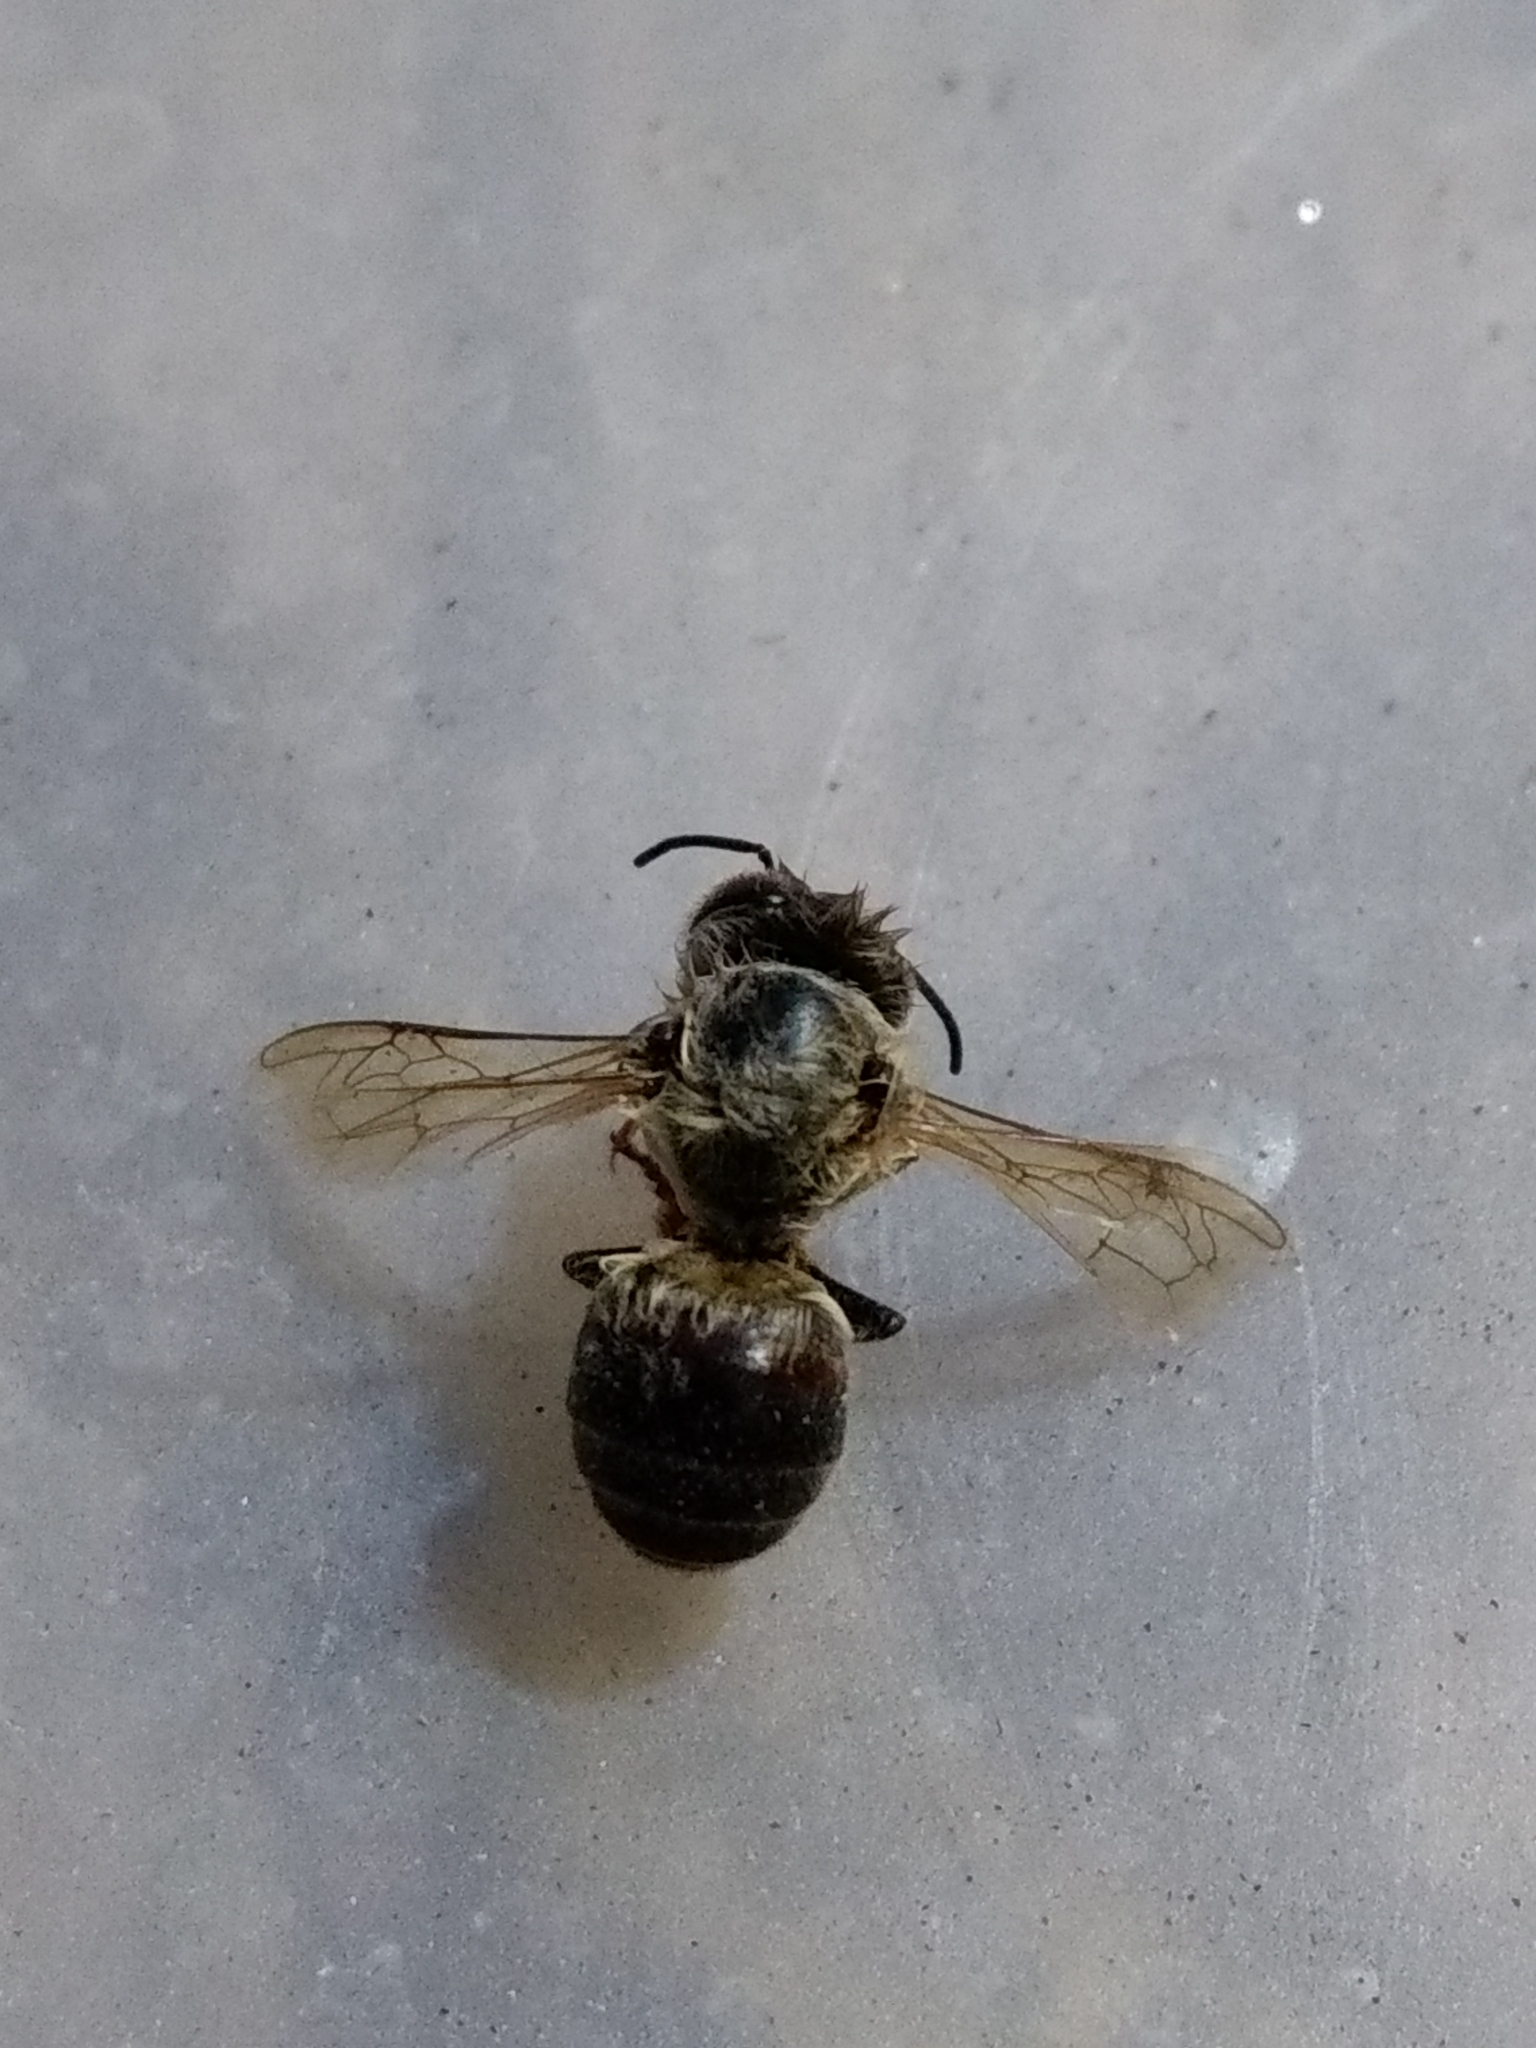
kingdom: Animalia
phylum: Arthropoda
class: Insecta
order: Hymenoptera
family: Apidae
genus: Apis
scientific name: Apis mellifera
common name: Honey bee
